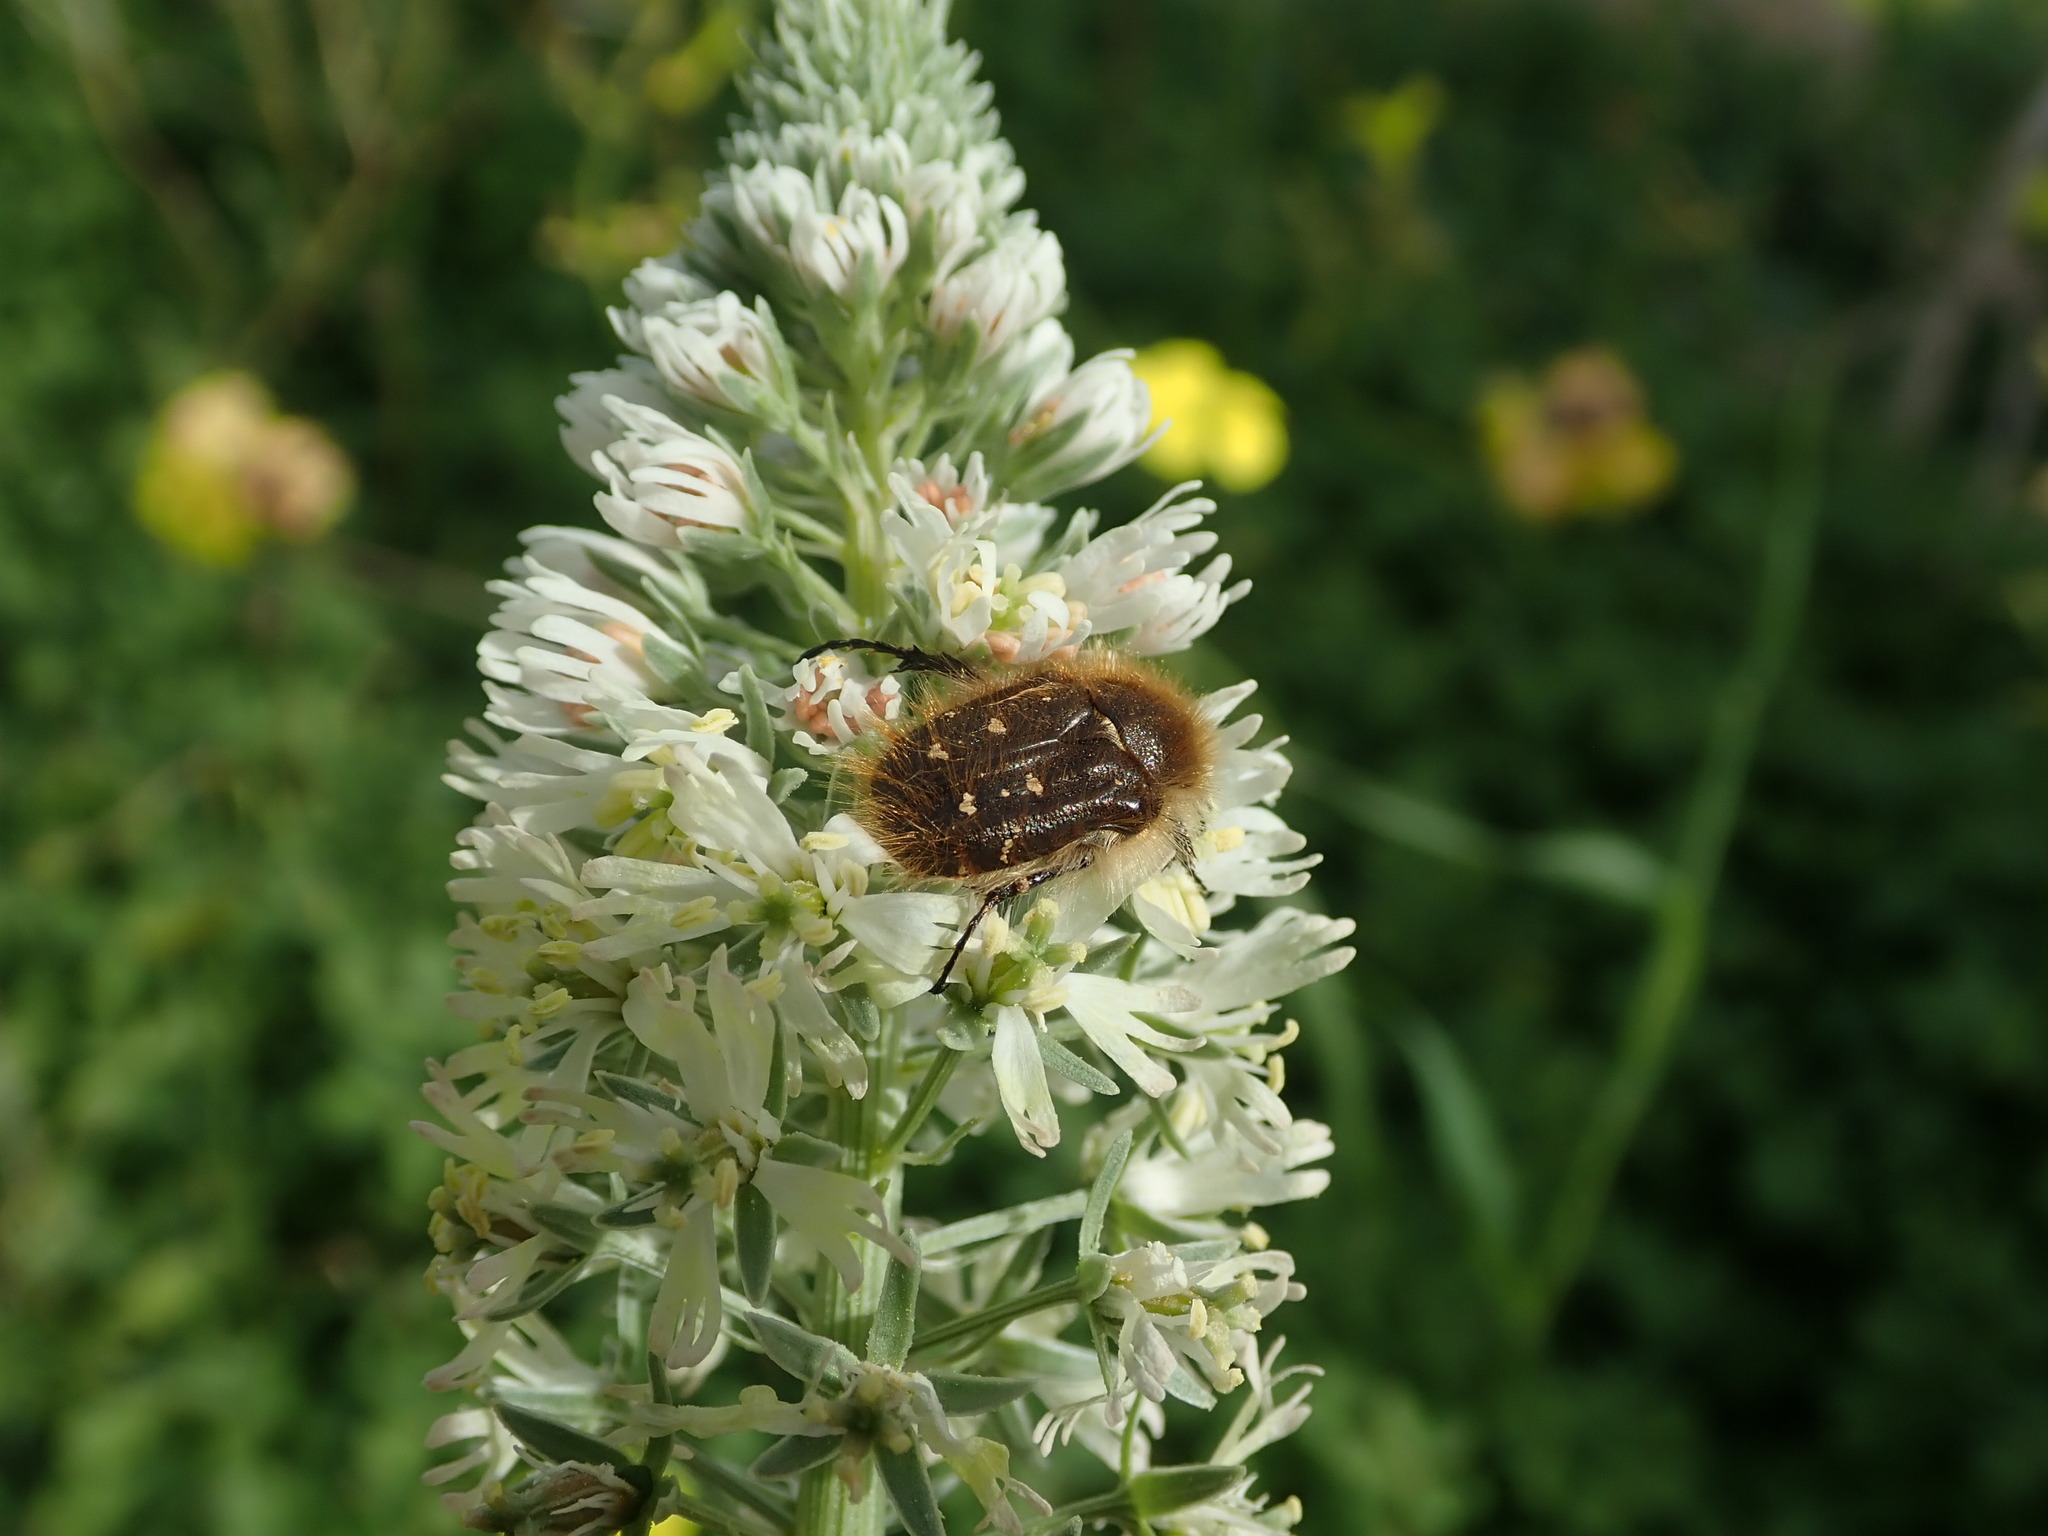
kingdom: Animalia
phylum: Arthropoda
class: Insecta
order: Coleoptera
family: Scarabaeidae
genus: Tropinota
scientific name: Tropinota squalida
